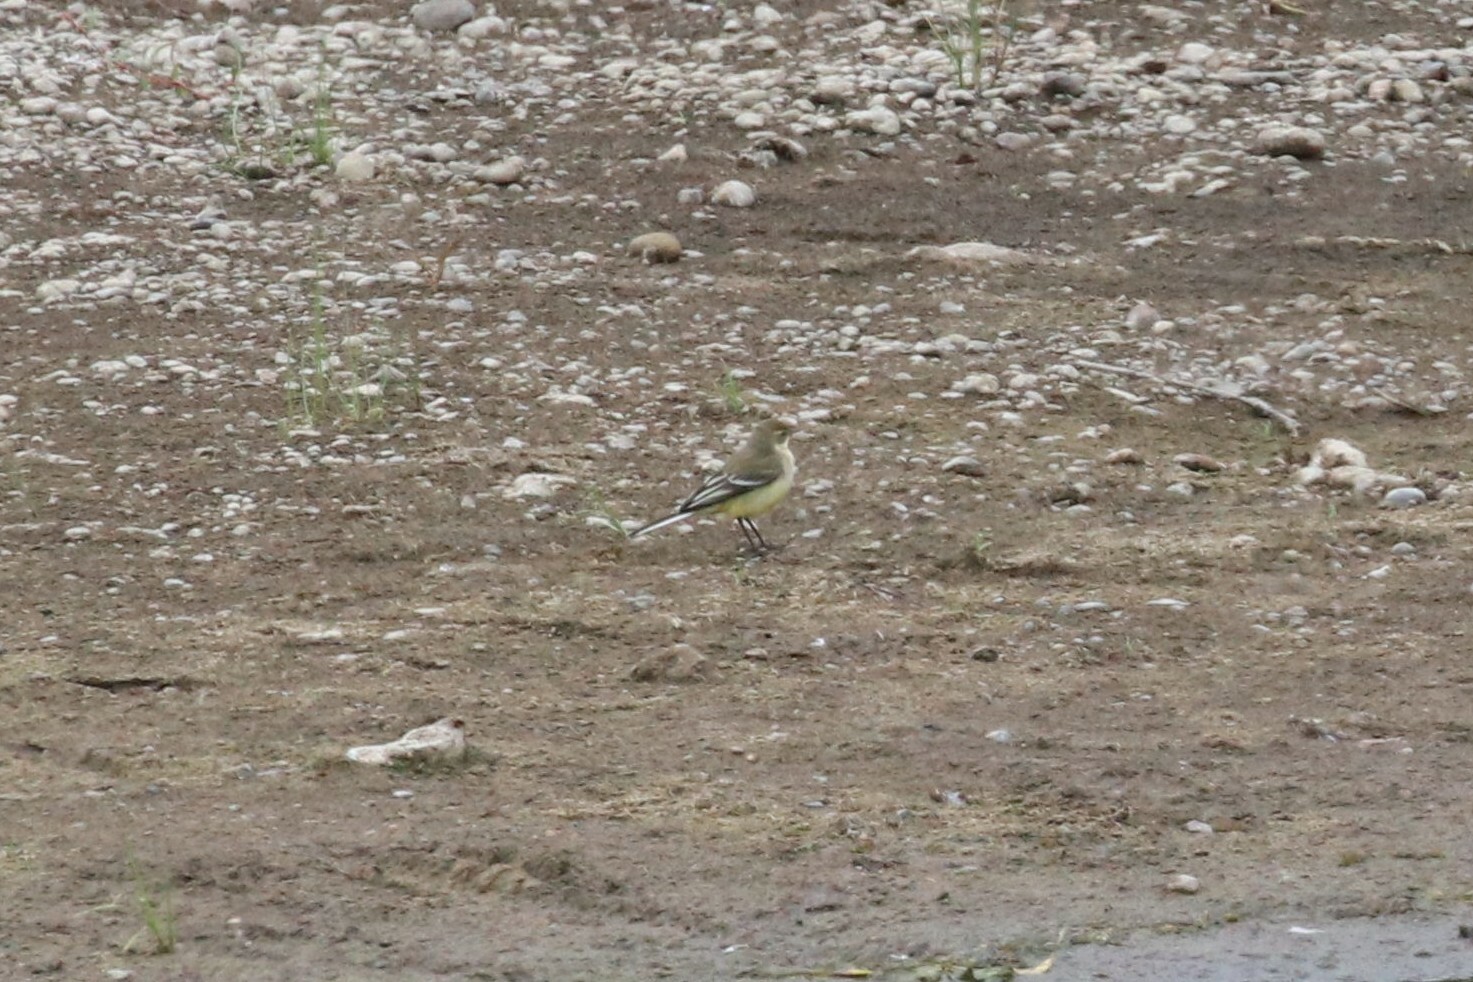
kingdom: Animalia
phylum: Chordata
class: Aves
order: Passeriformes
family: Motacillidae
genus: Motacilla
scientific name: Motacilla flava
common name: Western yellow wagtail
